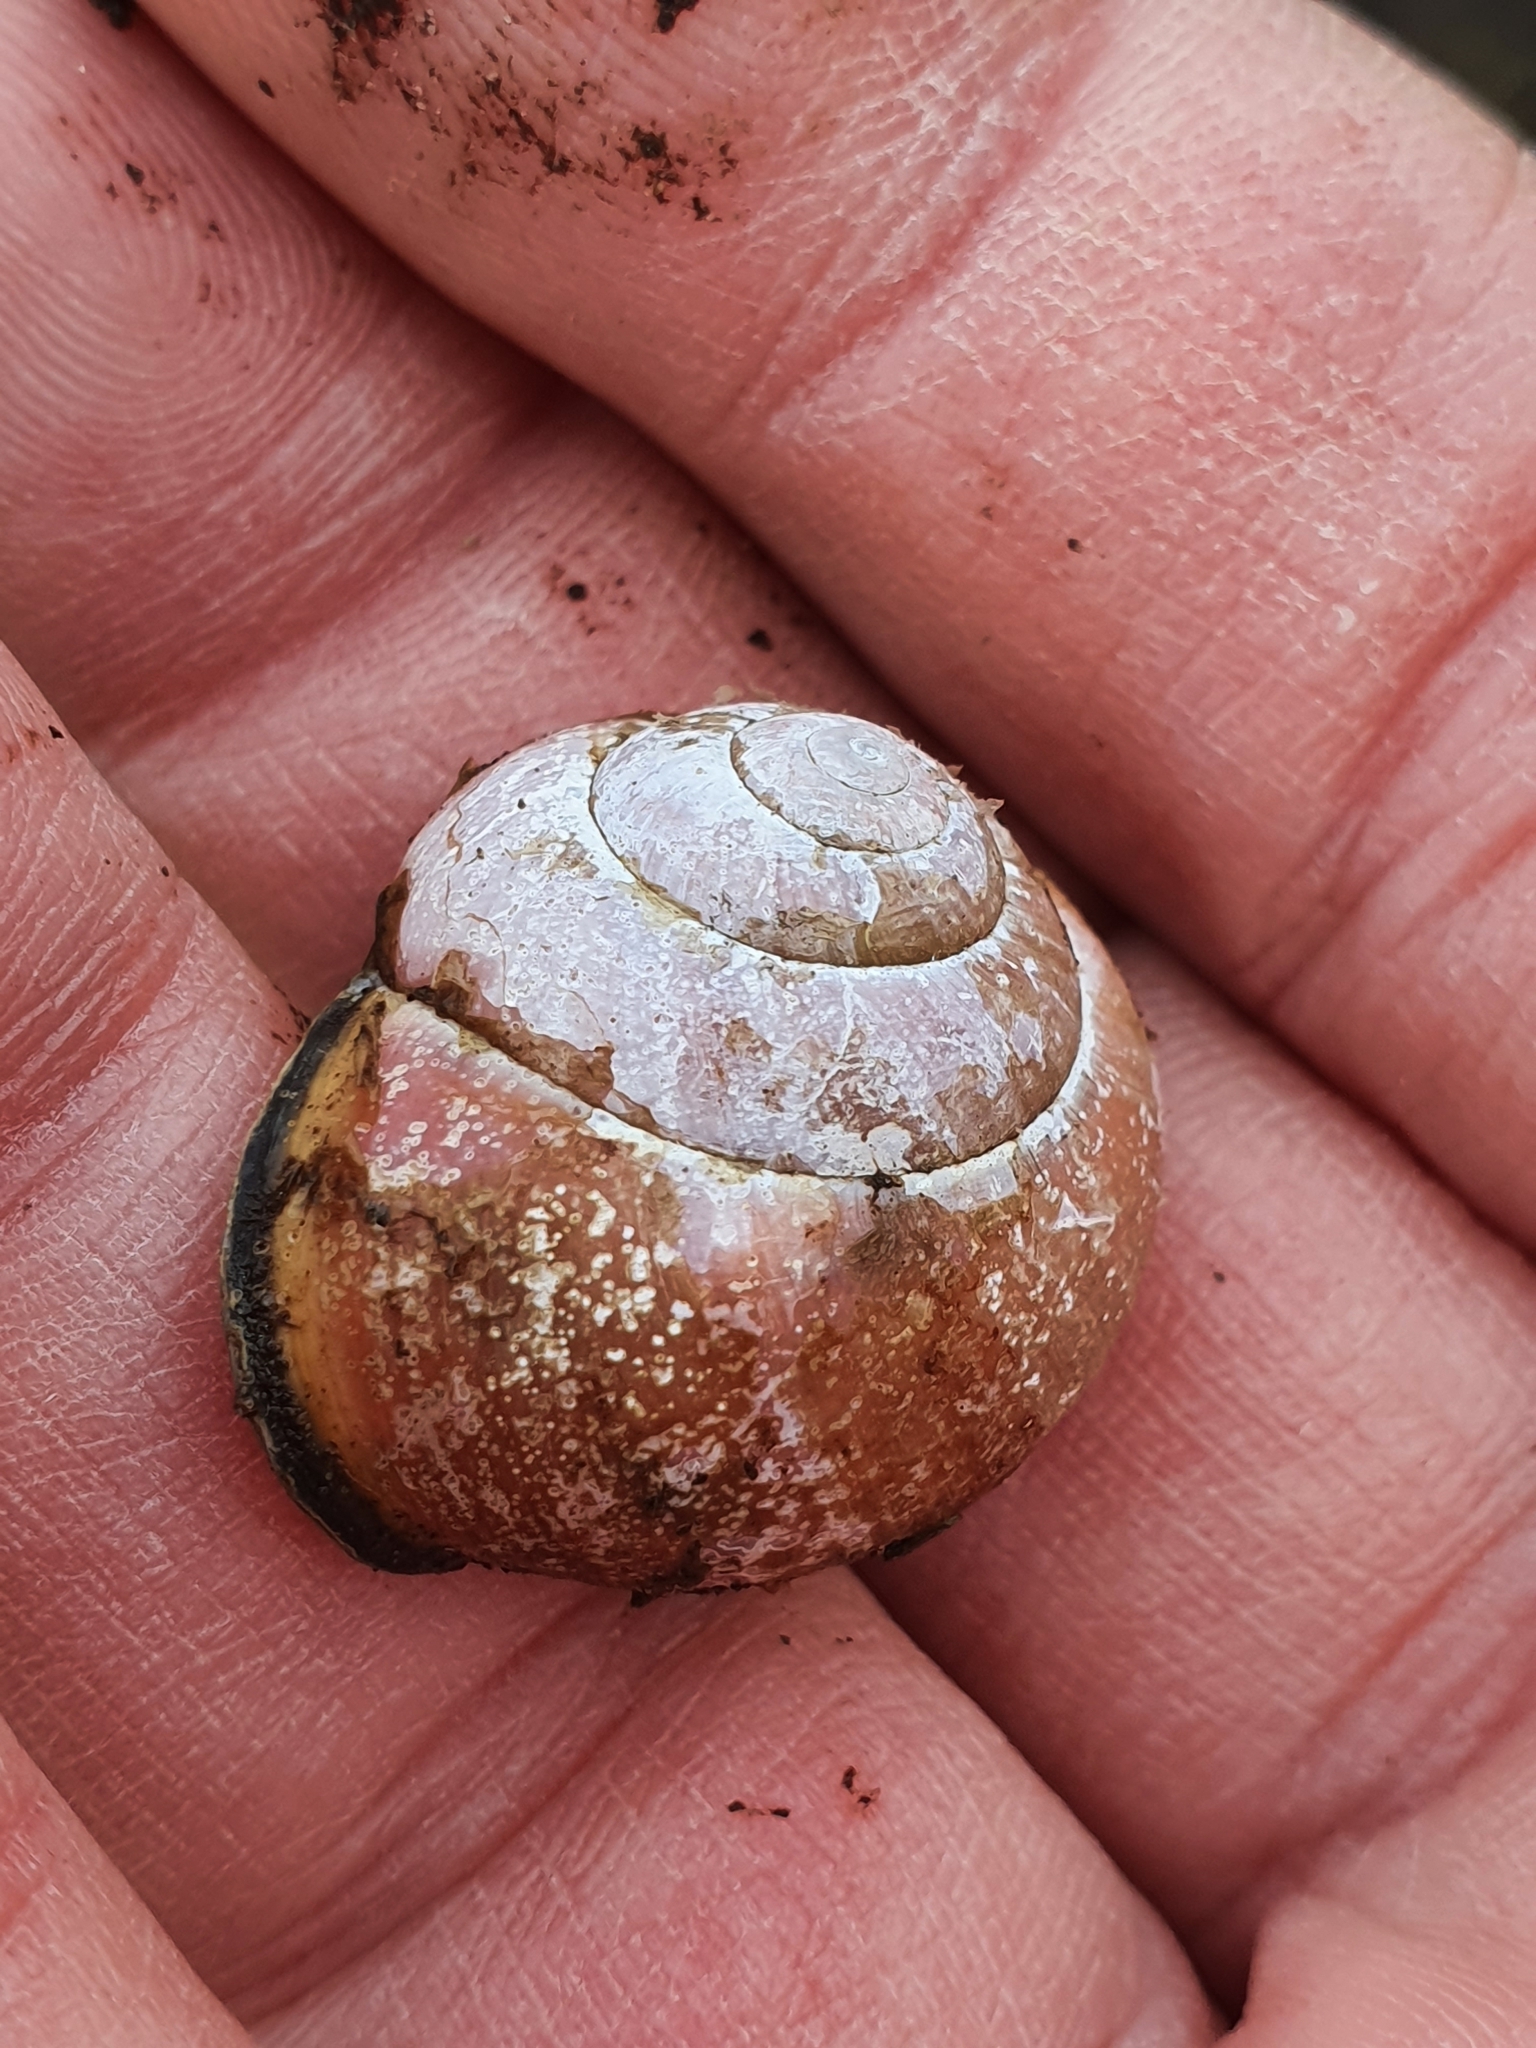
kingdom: Animalia
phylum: Mollusca
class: Gastropoda
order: Stylommatophora
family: Helicidae
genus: Cepaea
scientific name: Cepaea nemoralis
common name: Grovesnail
